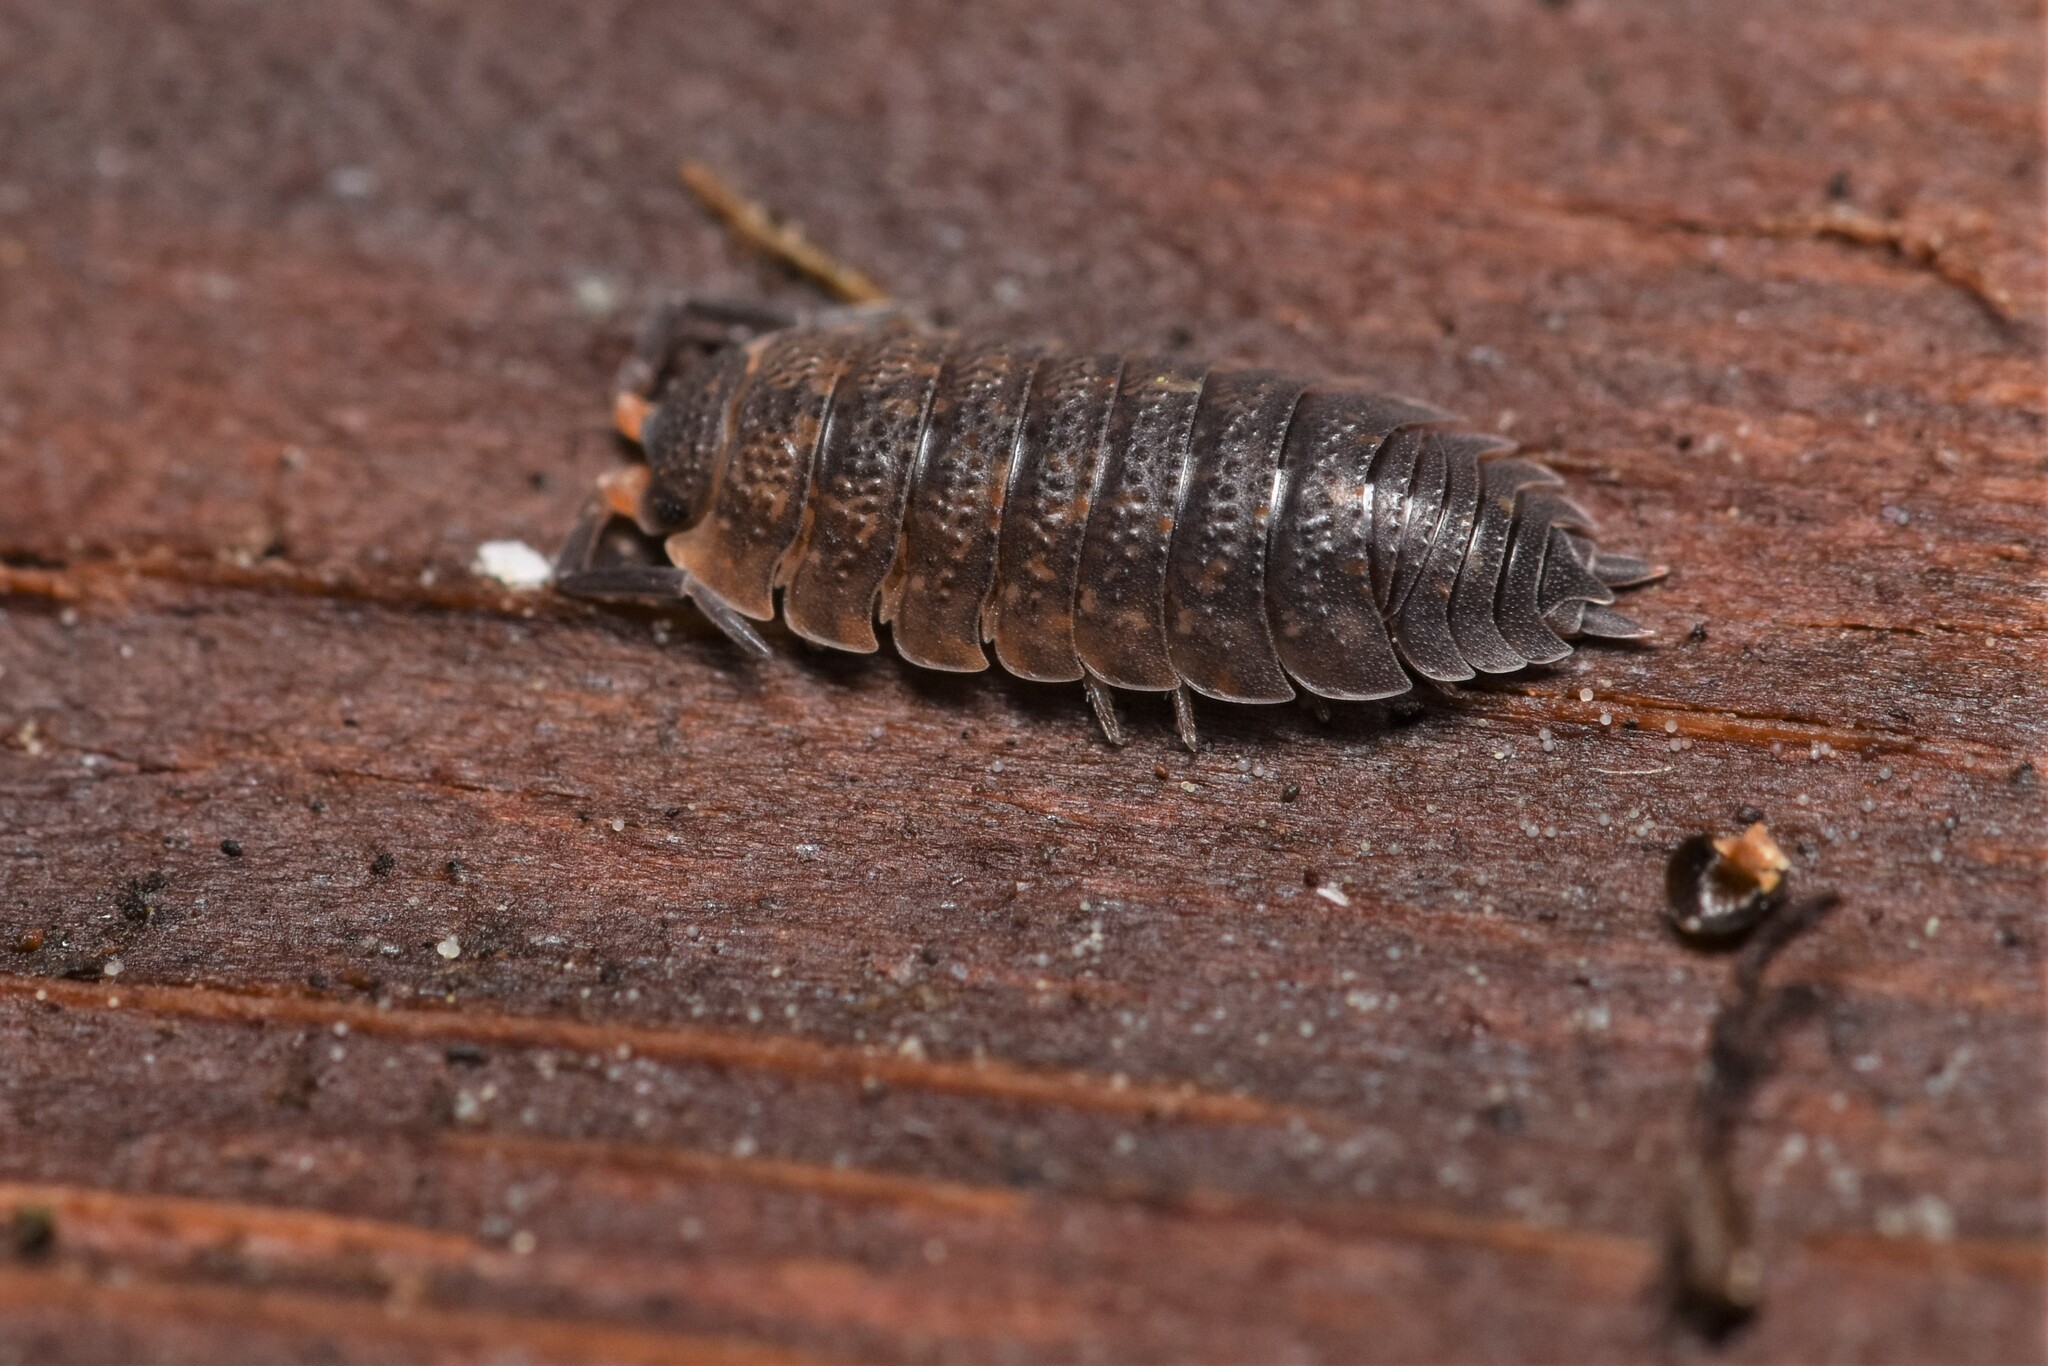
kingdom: Animalia
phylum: Arthropoda
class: Malacostraca
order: Isopoda
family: Porcellionidae
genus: Porcellio
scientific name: Porcellio scaber
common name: Common rough woodlouse
